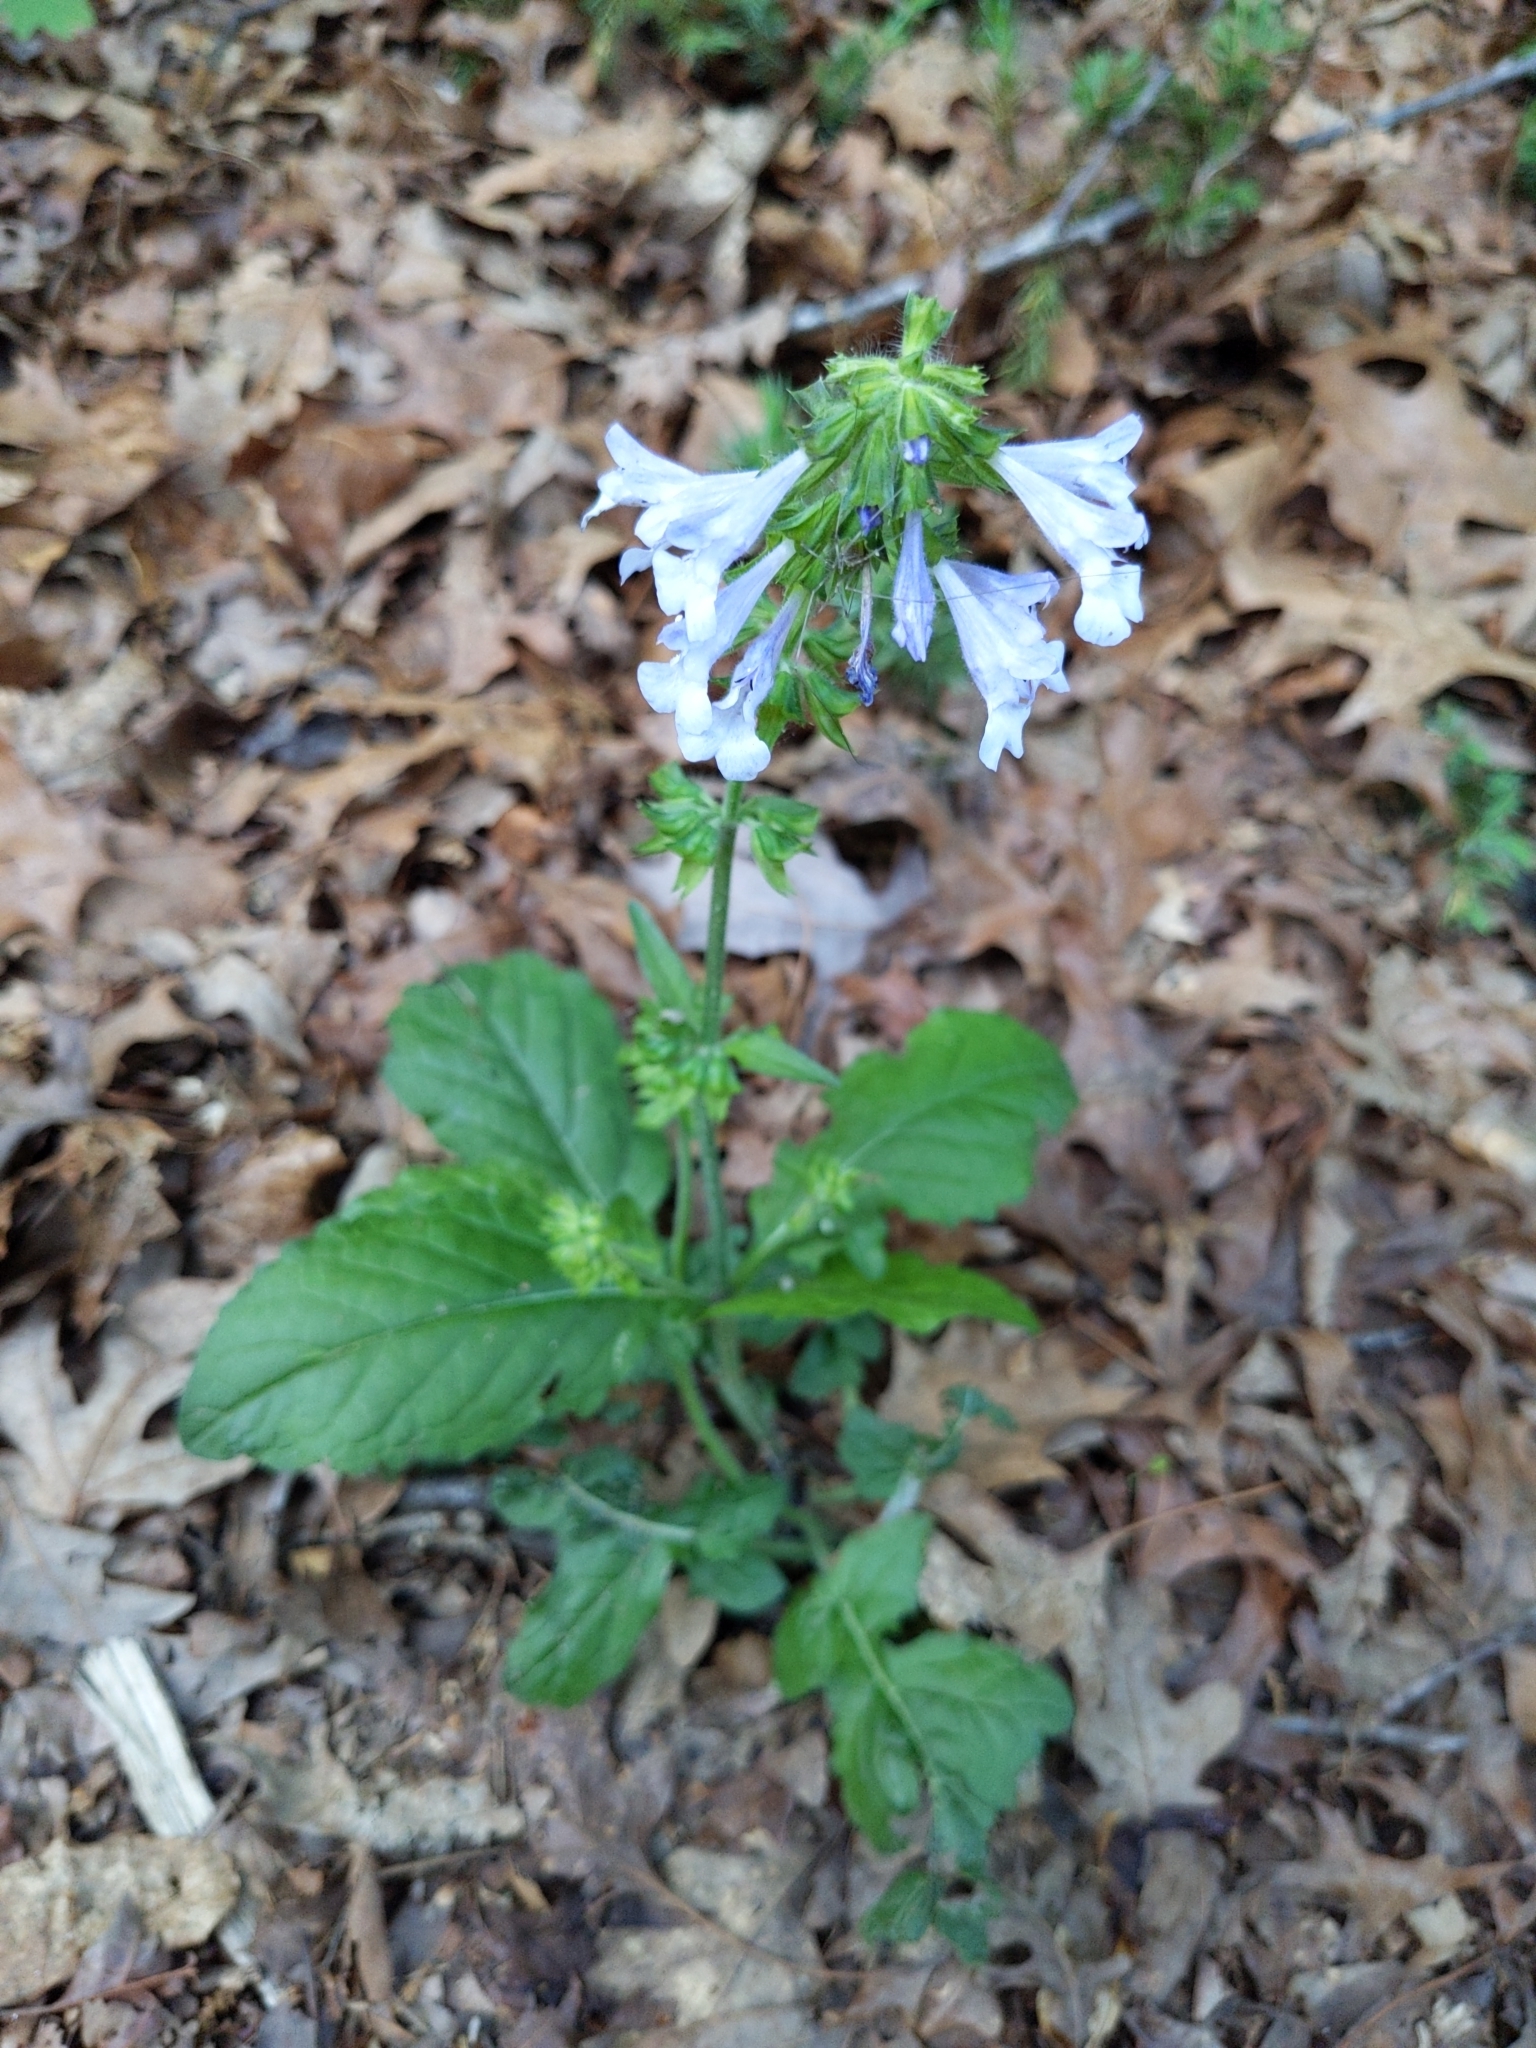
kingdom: Plantae
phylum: Tracheophyta
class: Magnoliopsida
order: Lamiales
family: Lamiaceae
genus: Salvia
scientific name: Salvia lyrata
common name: Cancerweed
